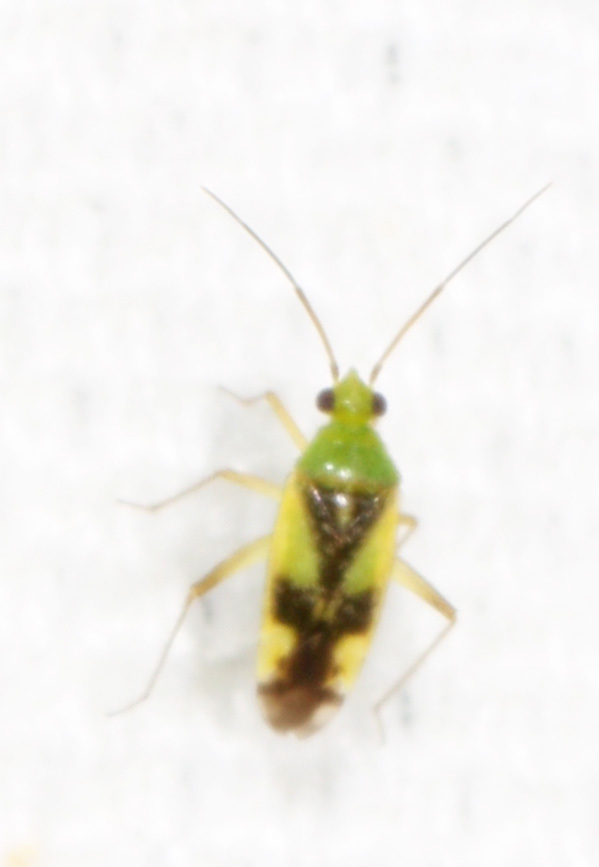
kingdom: Animalia
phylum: Arthropoda
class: Insecta
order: Hemiptera
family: Miridae
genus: Reuteroscopus
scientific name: Reuteroscopus ornatus
